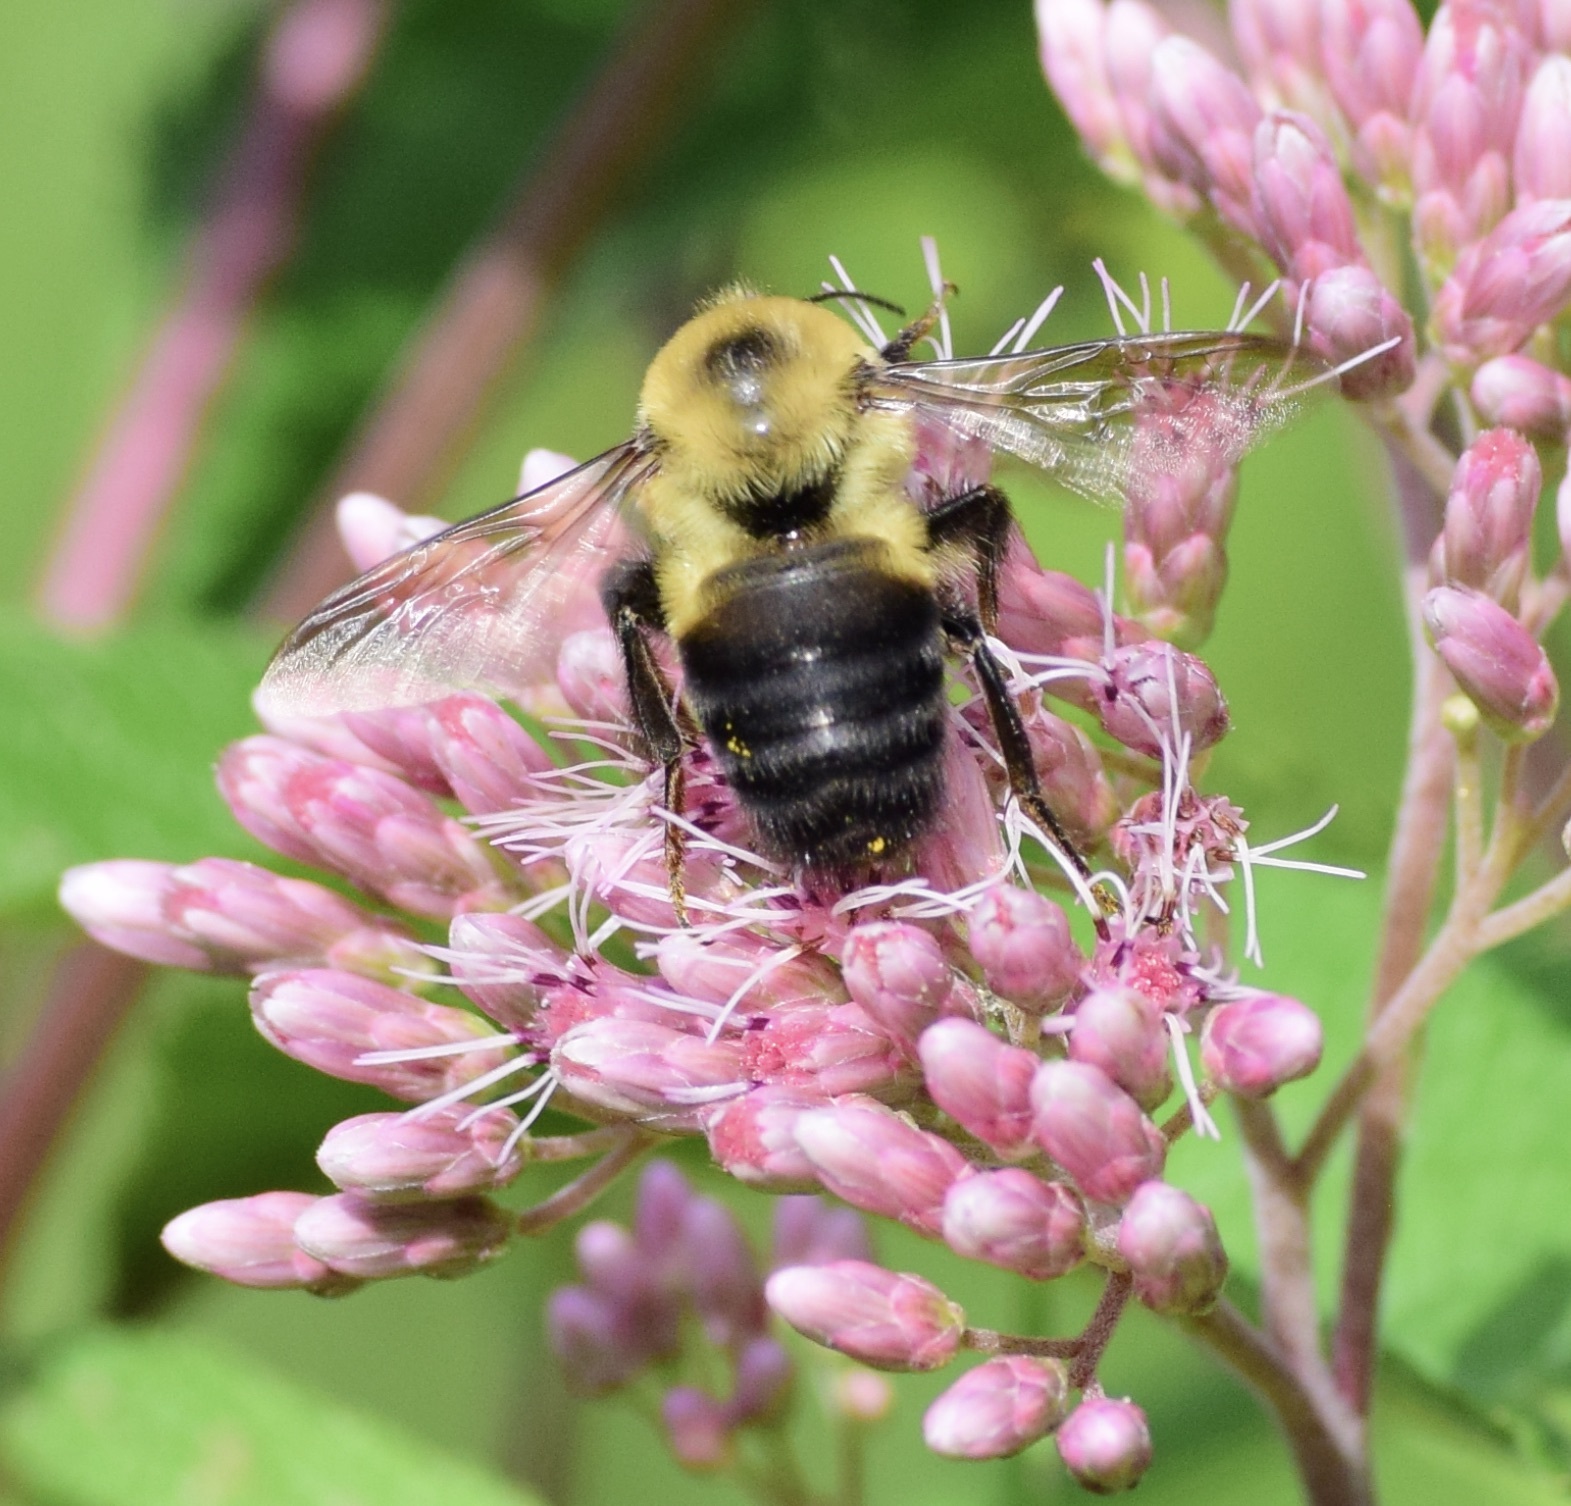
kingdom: Animalia
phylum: Arthropoda
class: Insecta
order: Hymenoptera
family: Apidae
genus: Bombus
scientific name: Bombus griseocollis
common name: Brown-belted bumble bee
